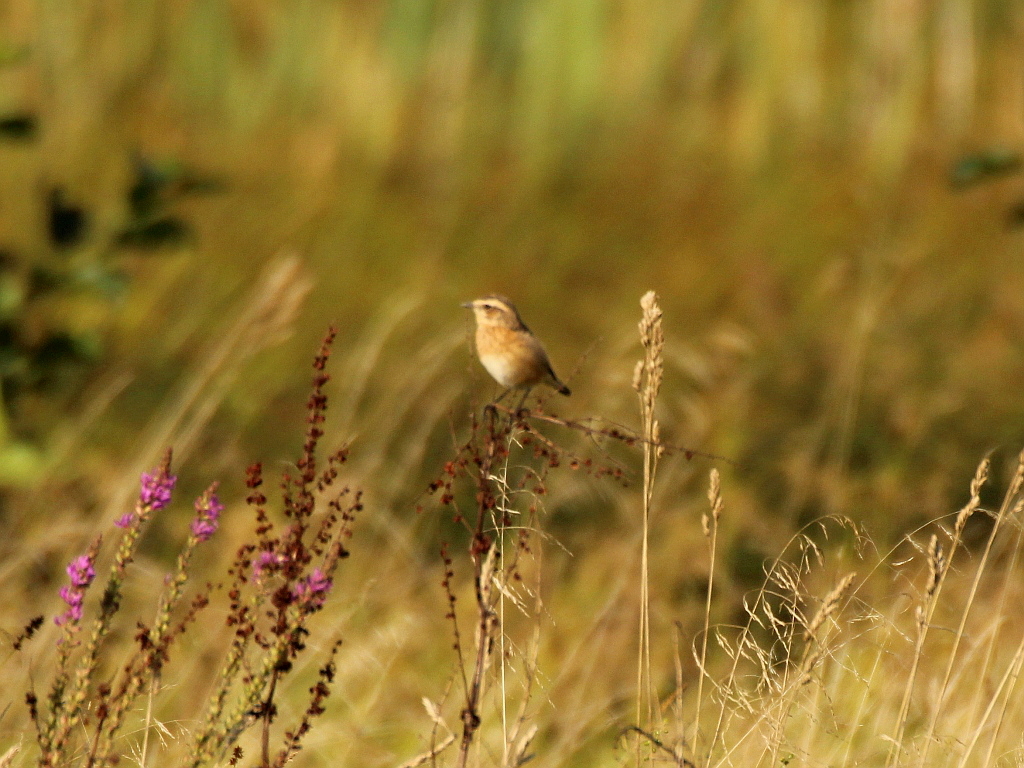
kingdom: Animalia
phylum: Chordata
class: Aves
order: Passeriformes
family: Muscicapidae
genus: Saxicola
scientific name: Saxicola rubetra
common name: Whinchat
